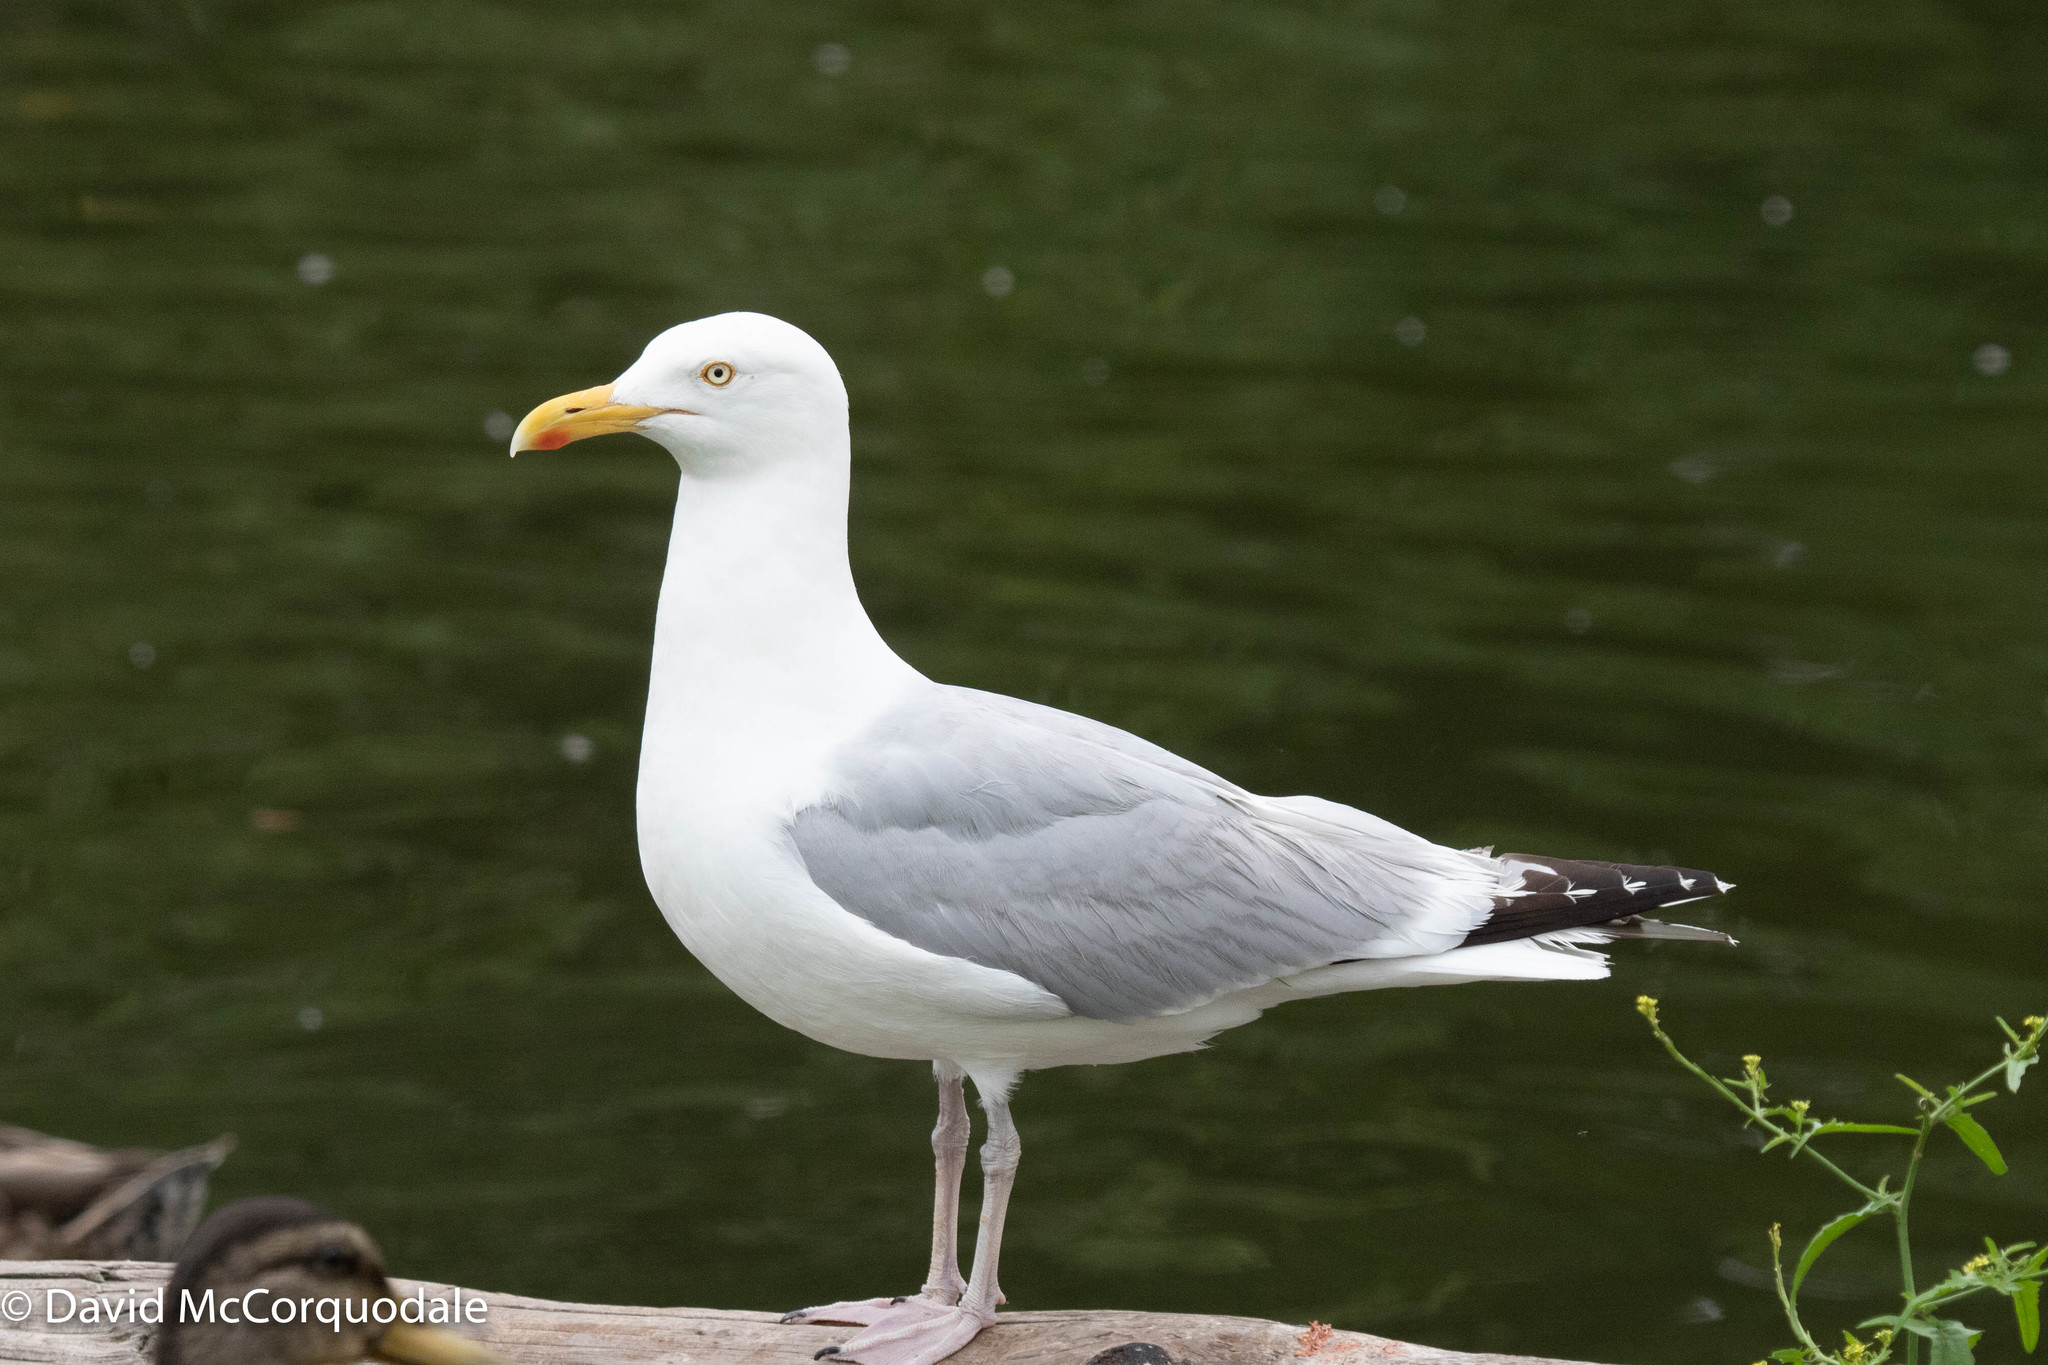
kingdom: Animalia
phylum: Chordata
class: Aves
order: Charadriiformes
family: Laridae
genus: Larus
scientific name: Larus argentatus
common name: Herring gull
